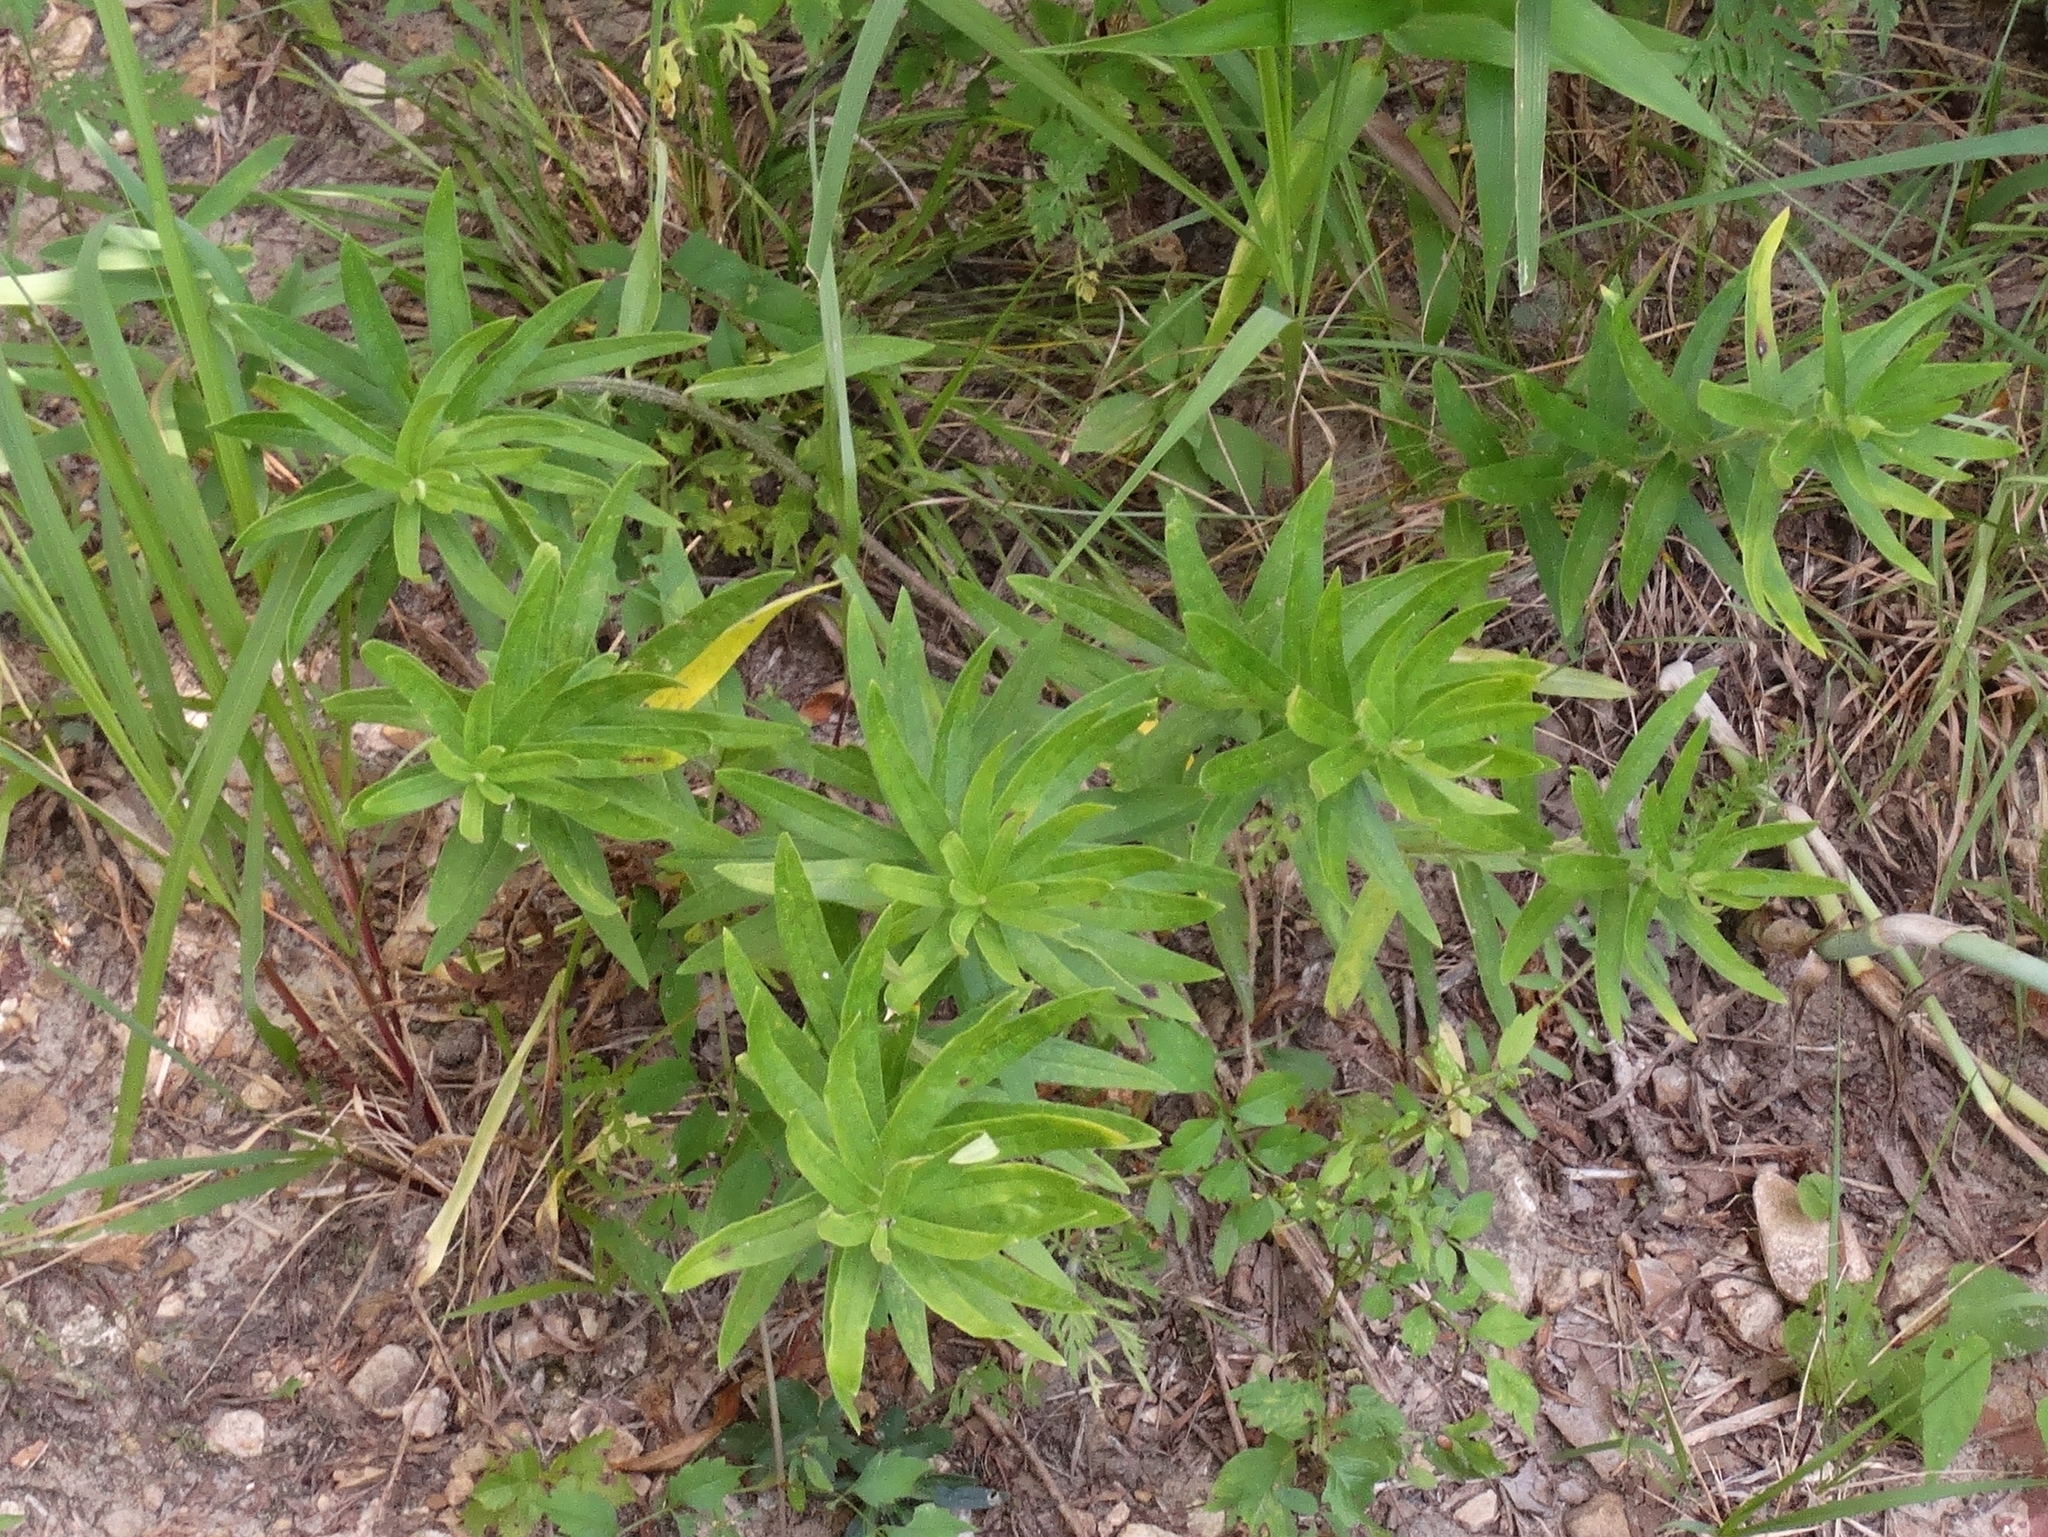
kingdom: Plantae
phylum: Tracheophyta
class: Magnoliopsida
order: Gentianales
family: Apocynaceae
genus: Asclepias
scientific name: Asclepias tuberosa
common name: Butterfly milkweed
